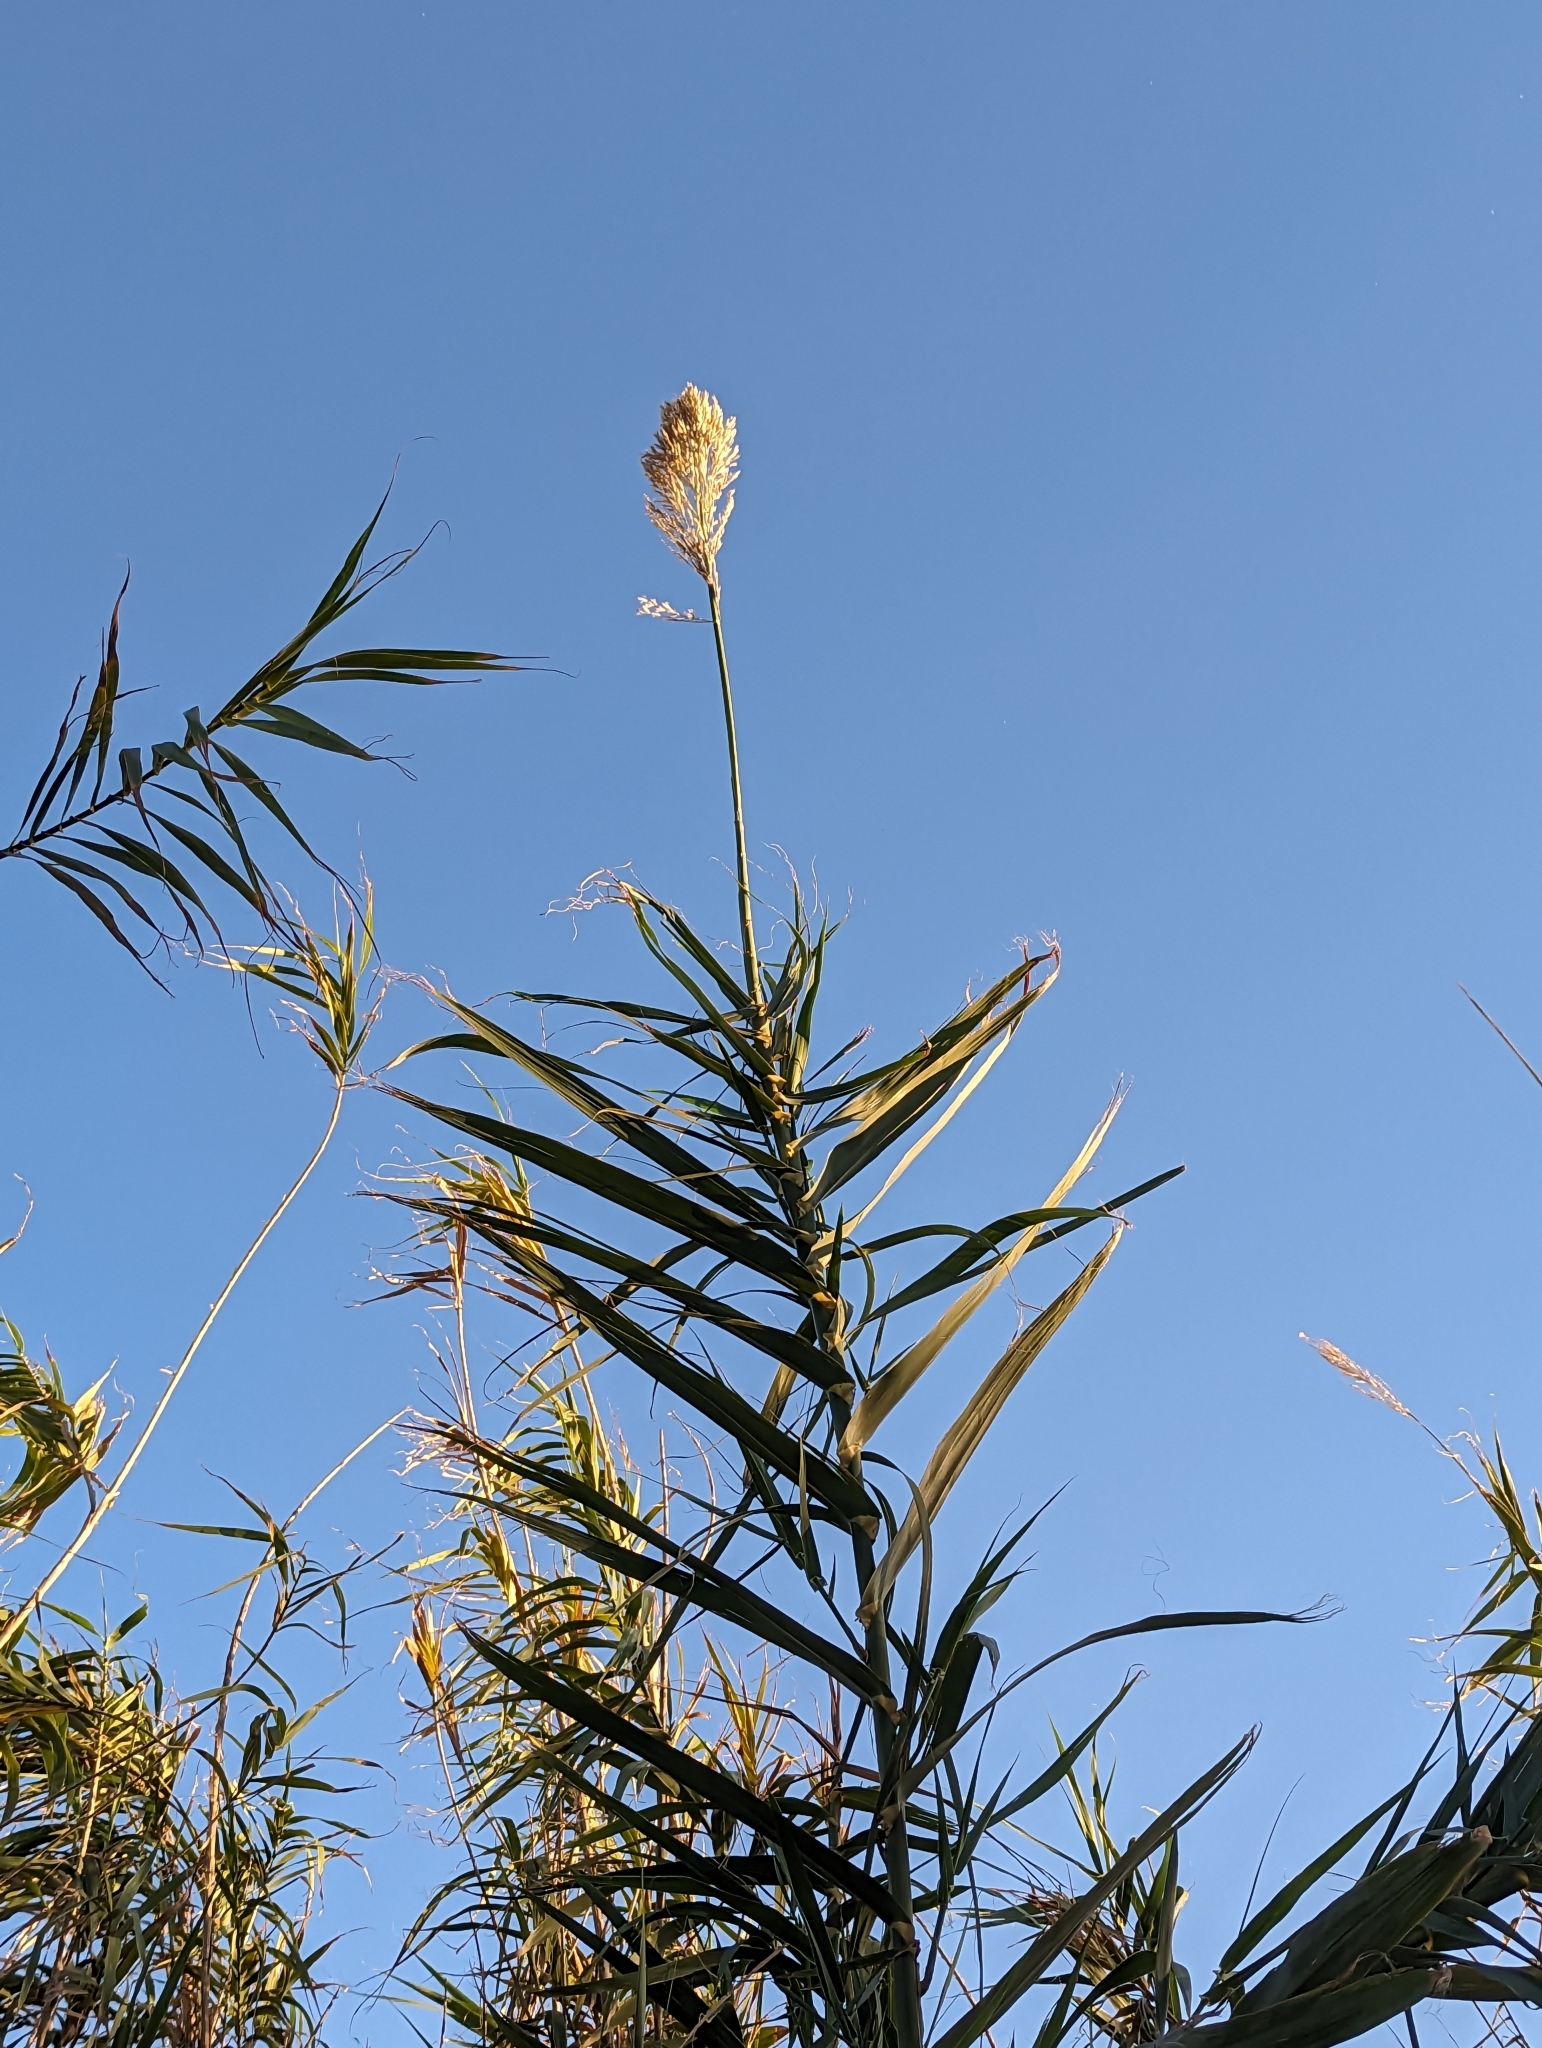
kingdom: Plantae
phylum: Tracheophyta
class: Liliopsida
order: Poales
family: Poaceae
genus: Arundo
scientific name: Arundo donax
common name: Giant reed
